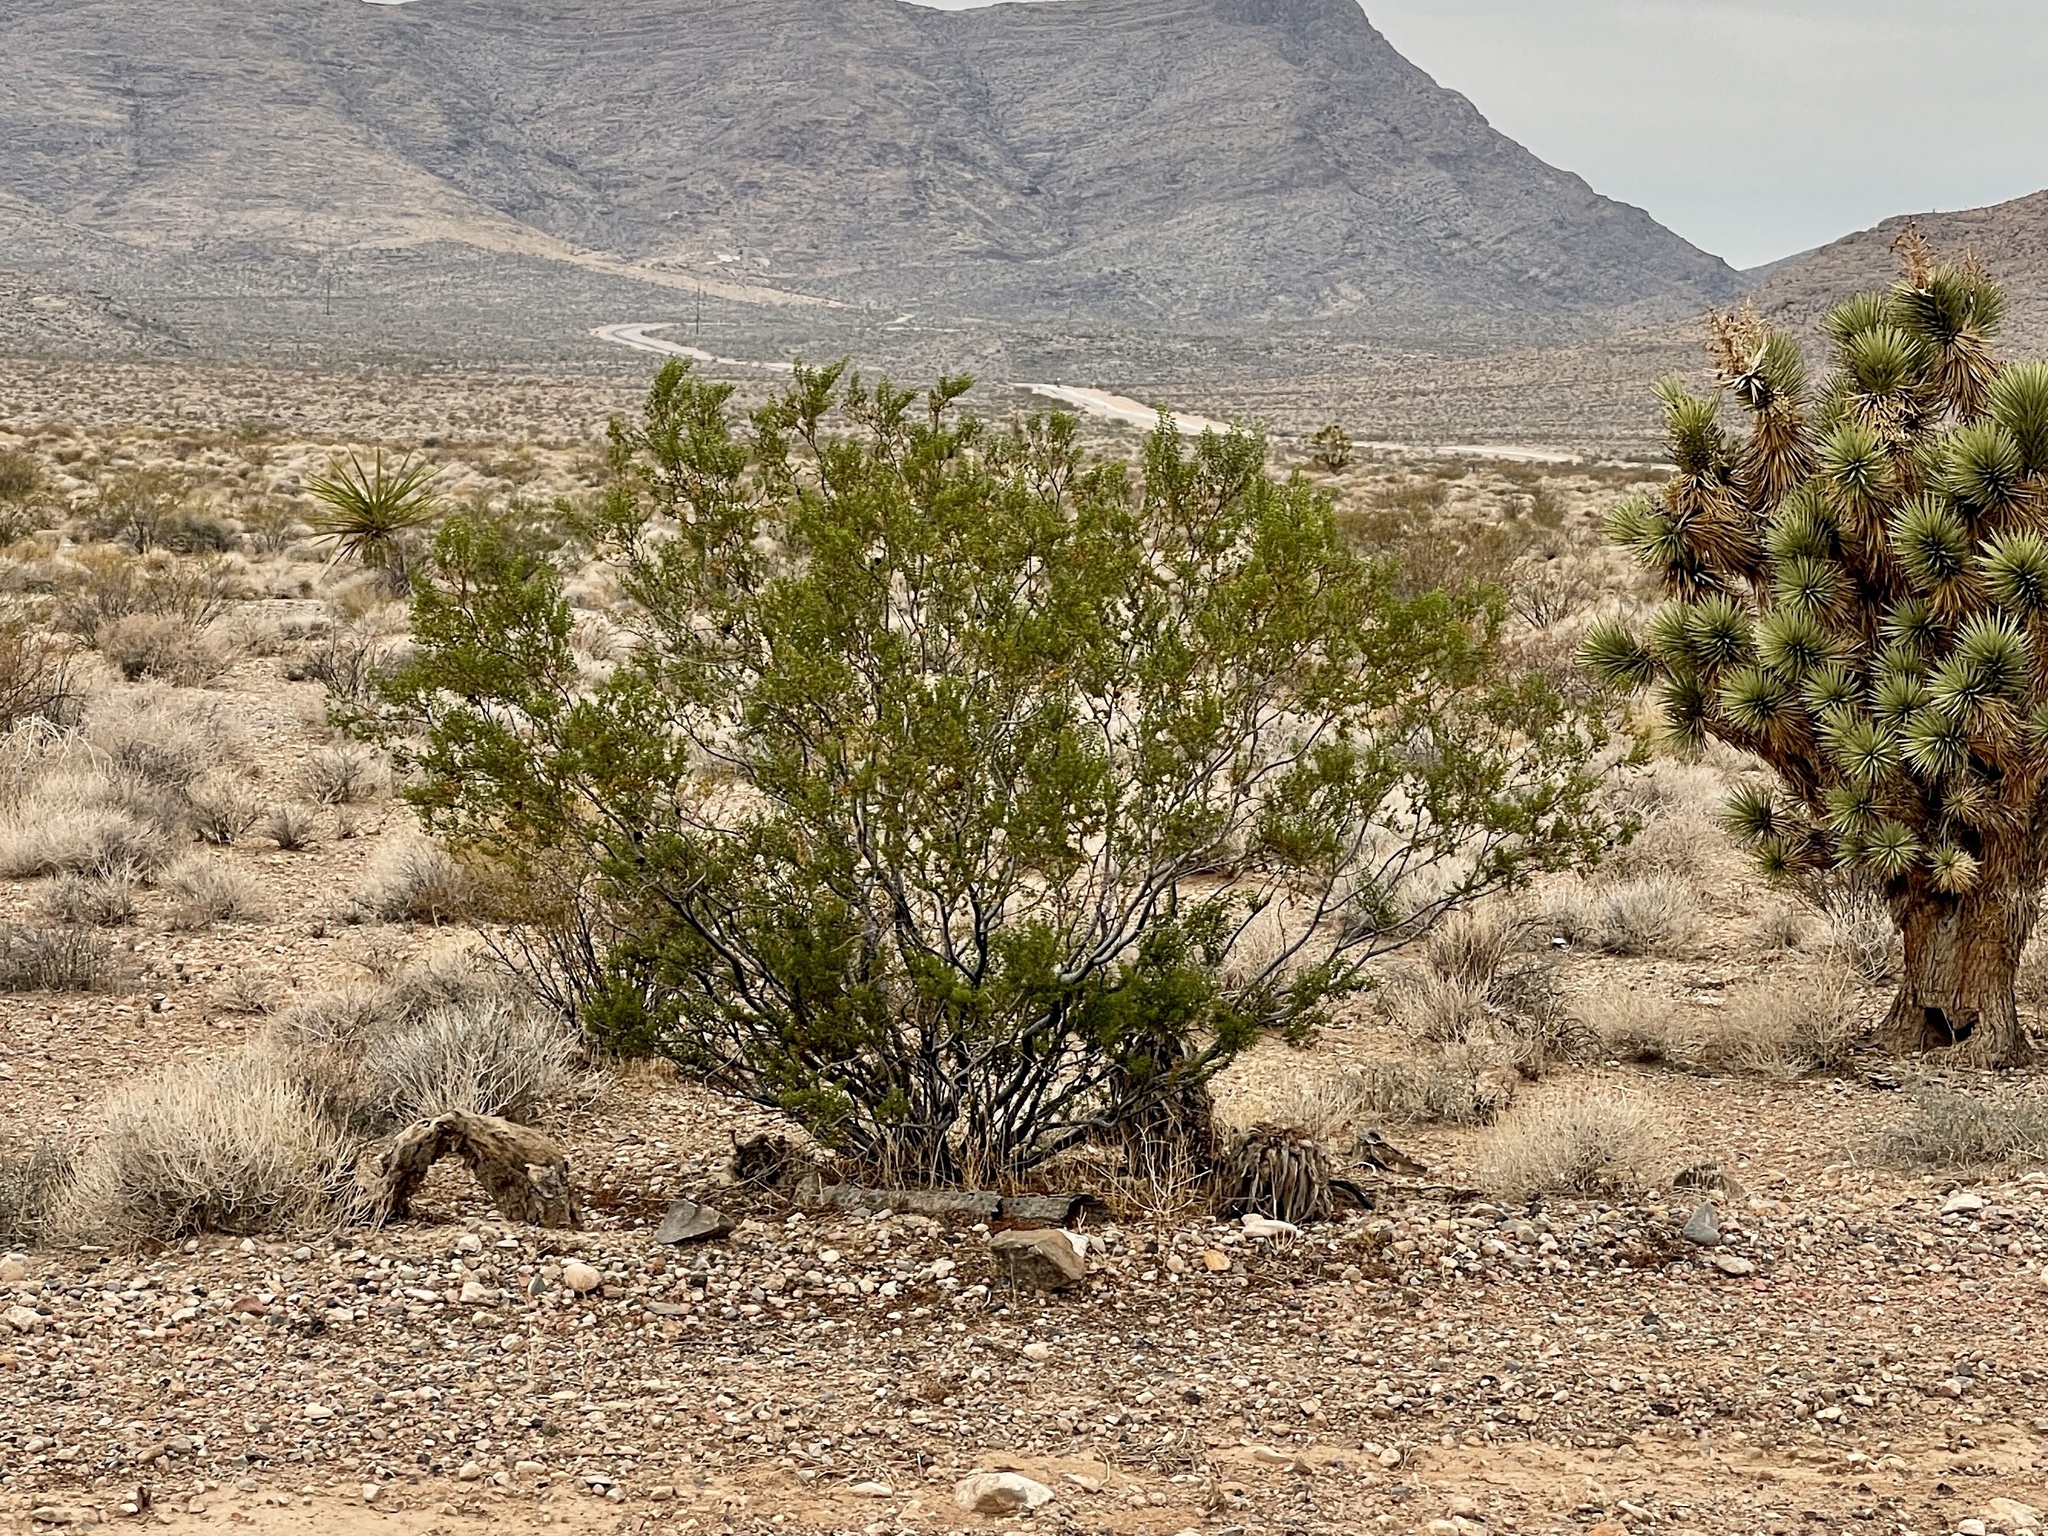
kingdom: Plantae
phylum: Tracheophyta
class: Magnoliopsida
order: Zygophyllales
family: Zygophyllaceae
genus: Larrea
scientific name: Larrea tridentata
